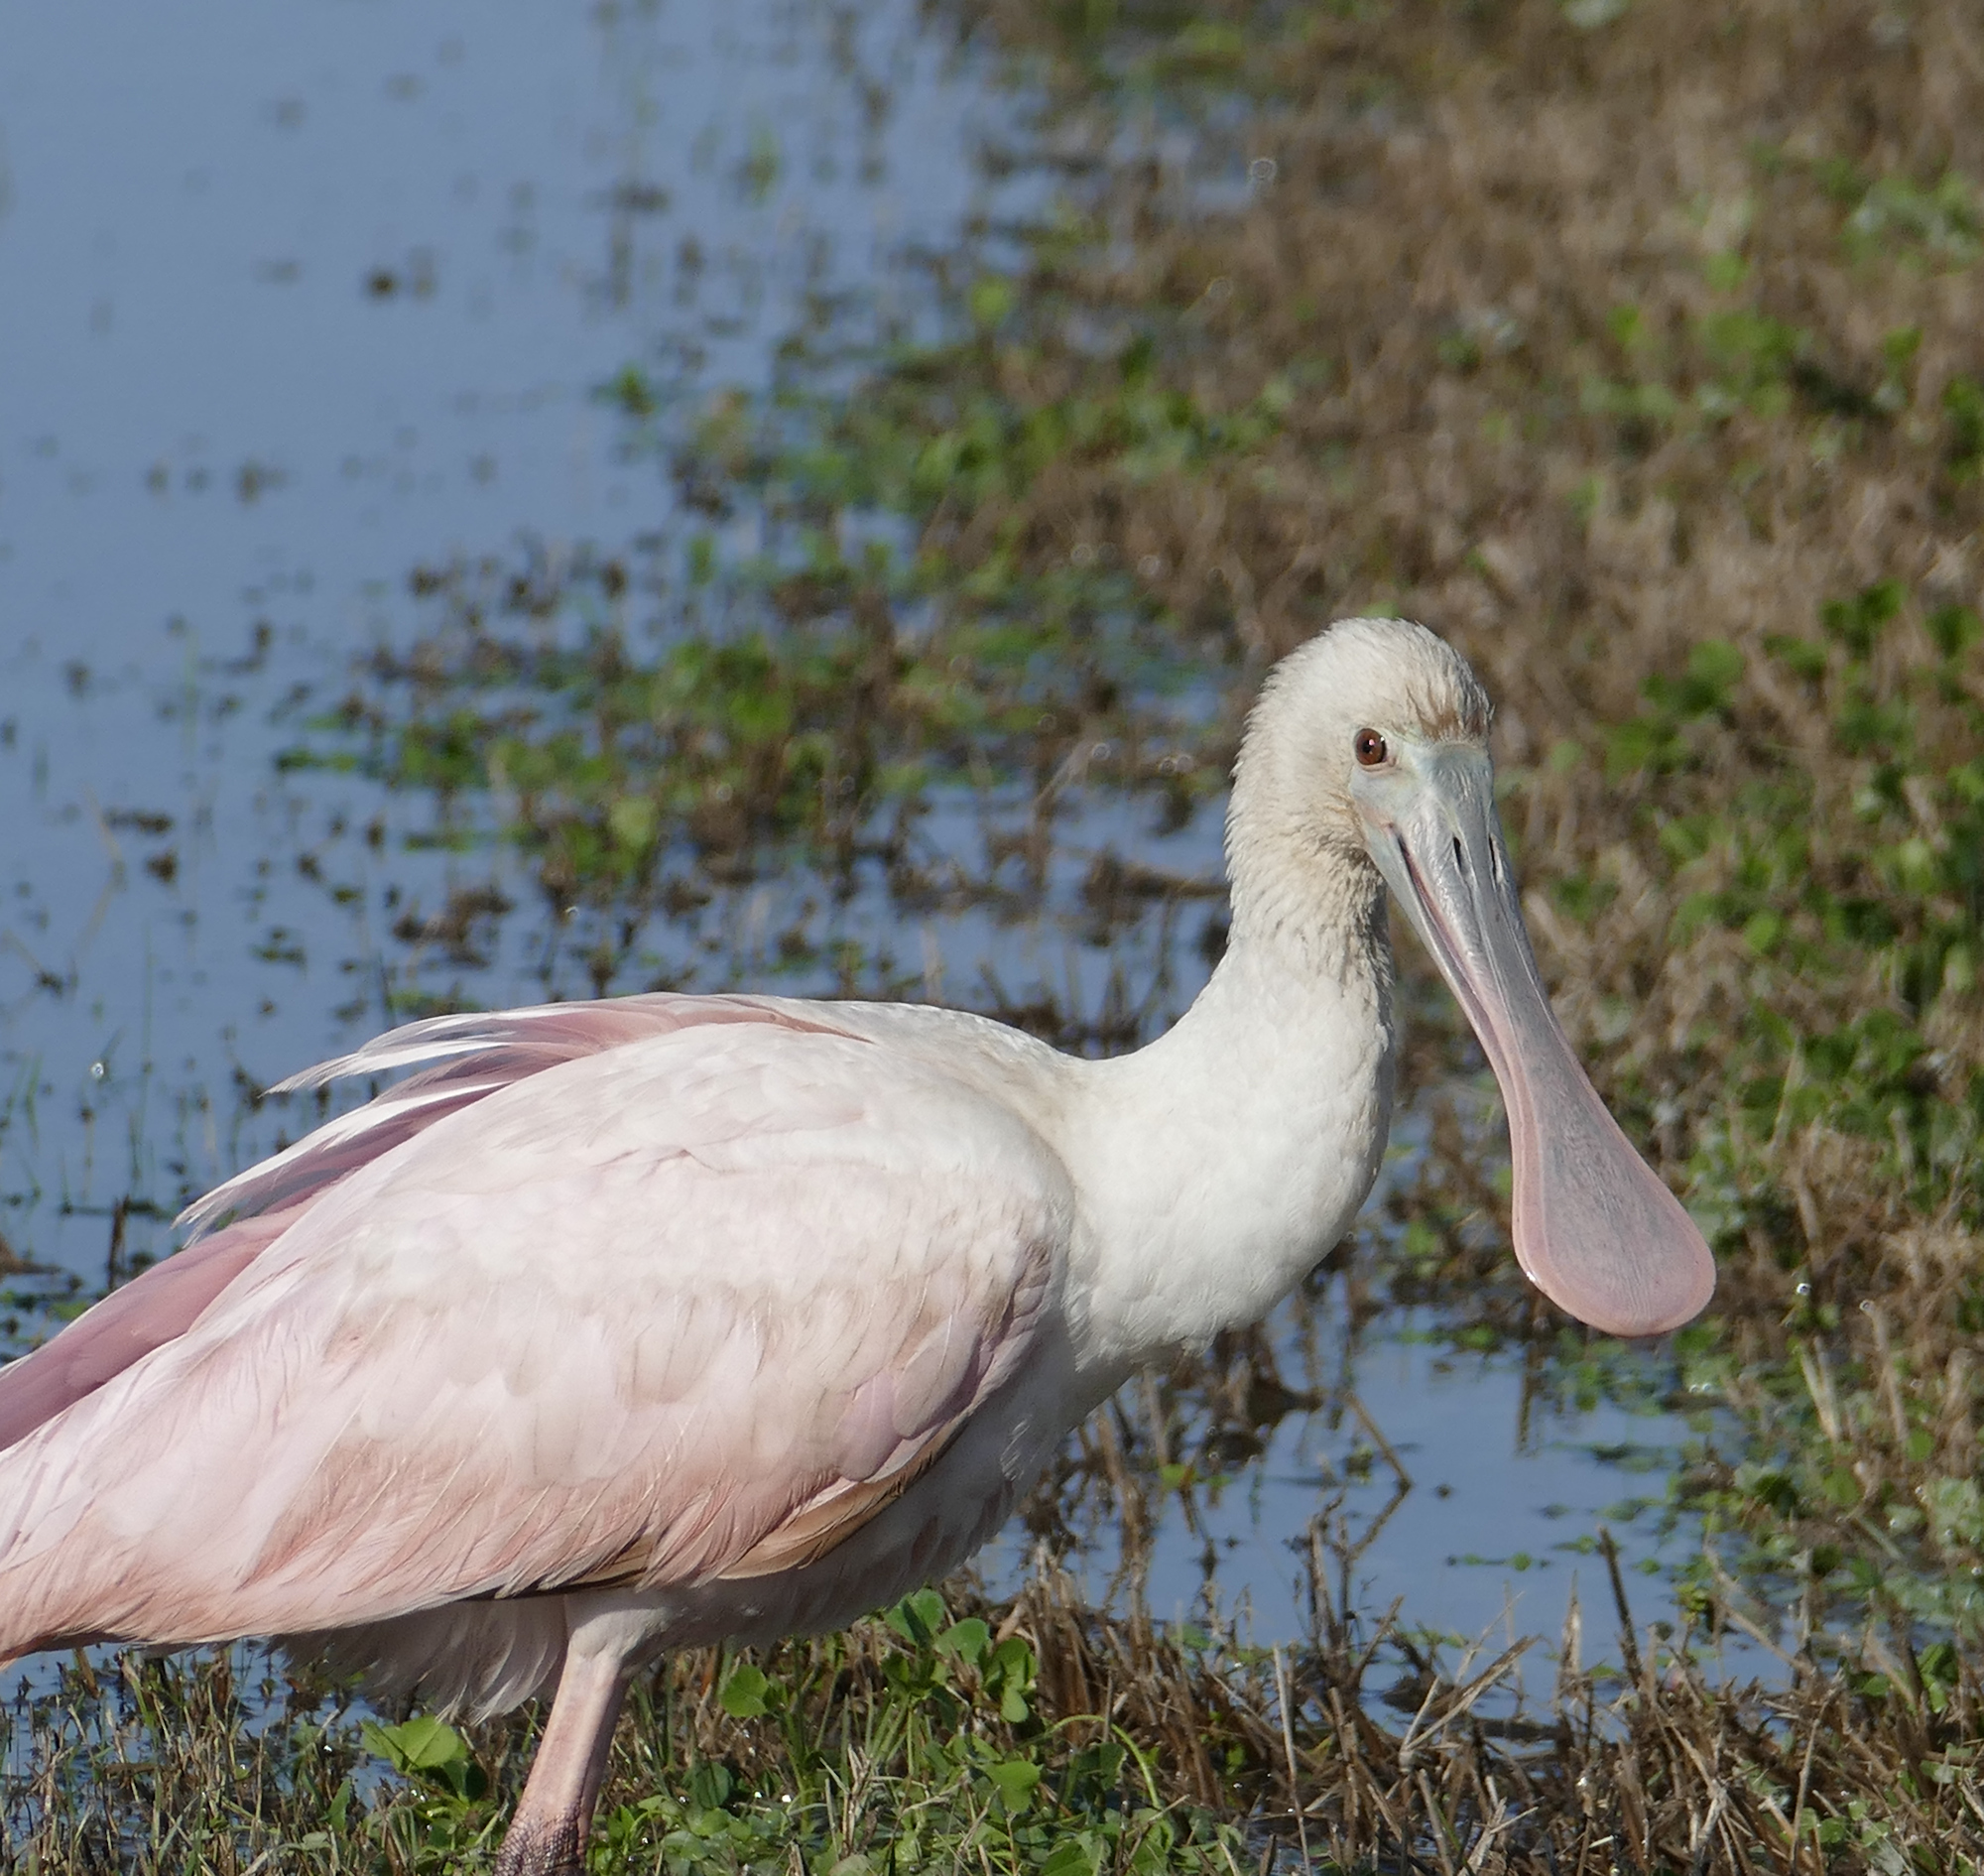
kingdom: Animalia
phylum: Chordata
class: Aves
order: Pelecaniformes
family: Threskiornithidae
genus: Platalea
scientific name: Platalea ajaja
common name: Roseate spoonbill
